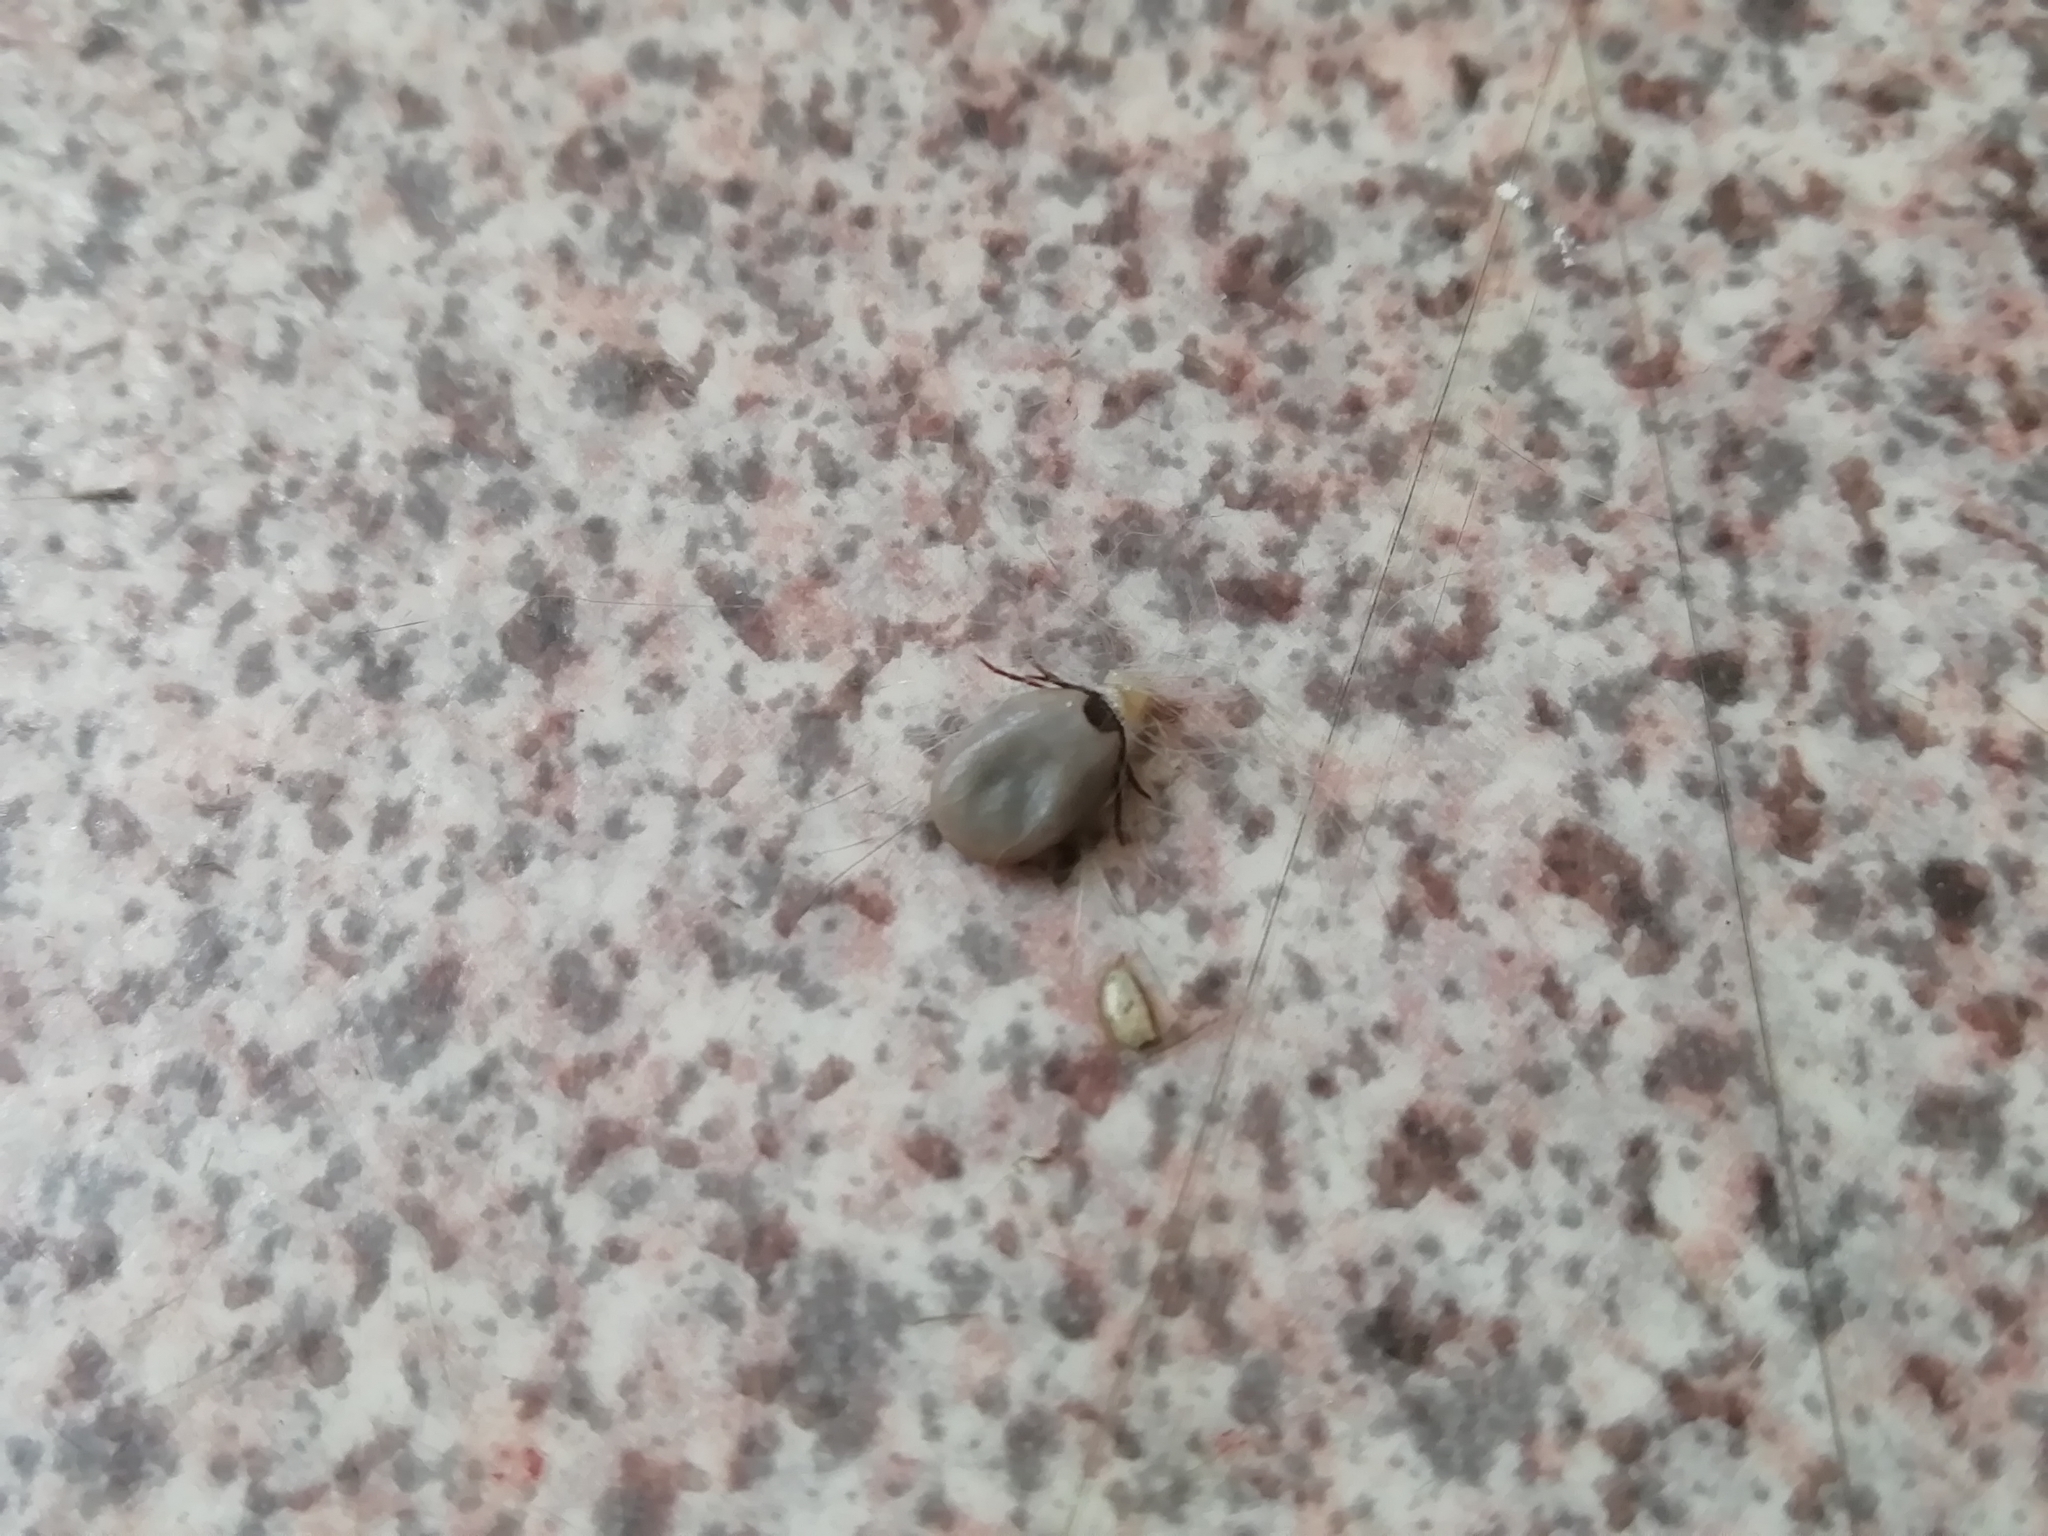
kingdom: Animalia
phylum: Arthropoda
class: Arachnida
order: Ixodida
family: Ixodidae
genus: Ixodes
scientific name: Ixodes persulcatus
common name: Taiga tick
